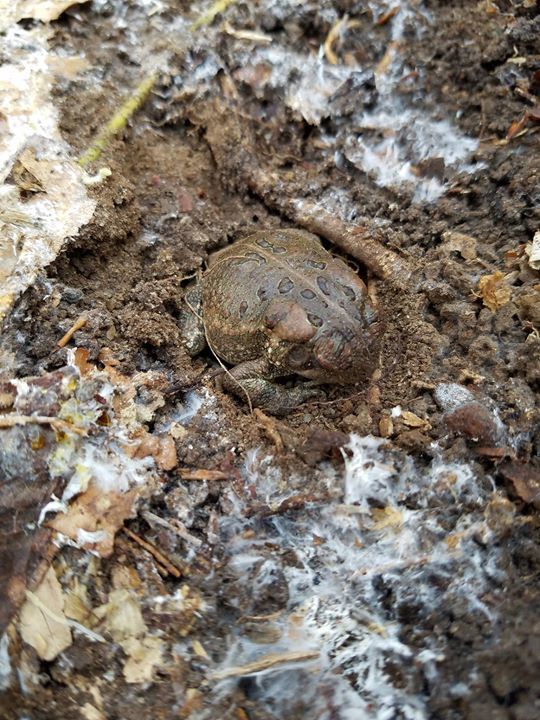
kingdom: Animalia
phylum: Chordata
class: Amphibia
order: Anura
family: Bufonidae
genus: Anaxyrus
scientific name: Anaxyrus fowleri
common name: Fowler's toad
